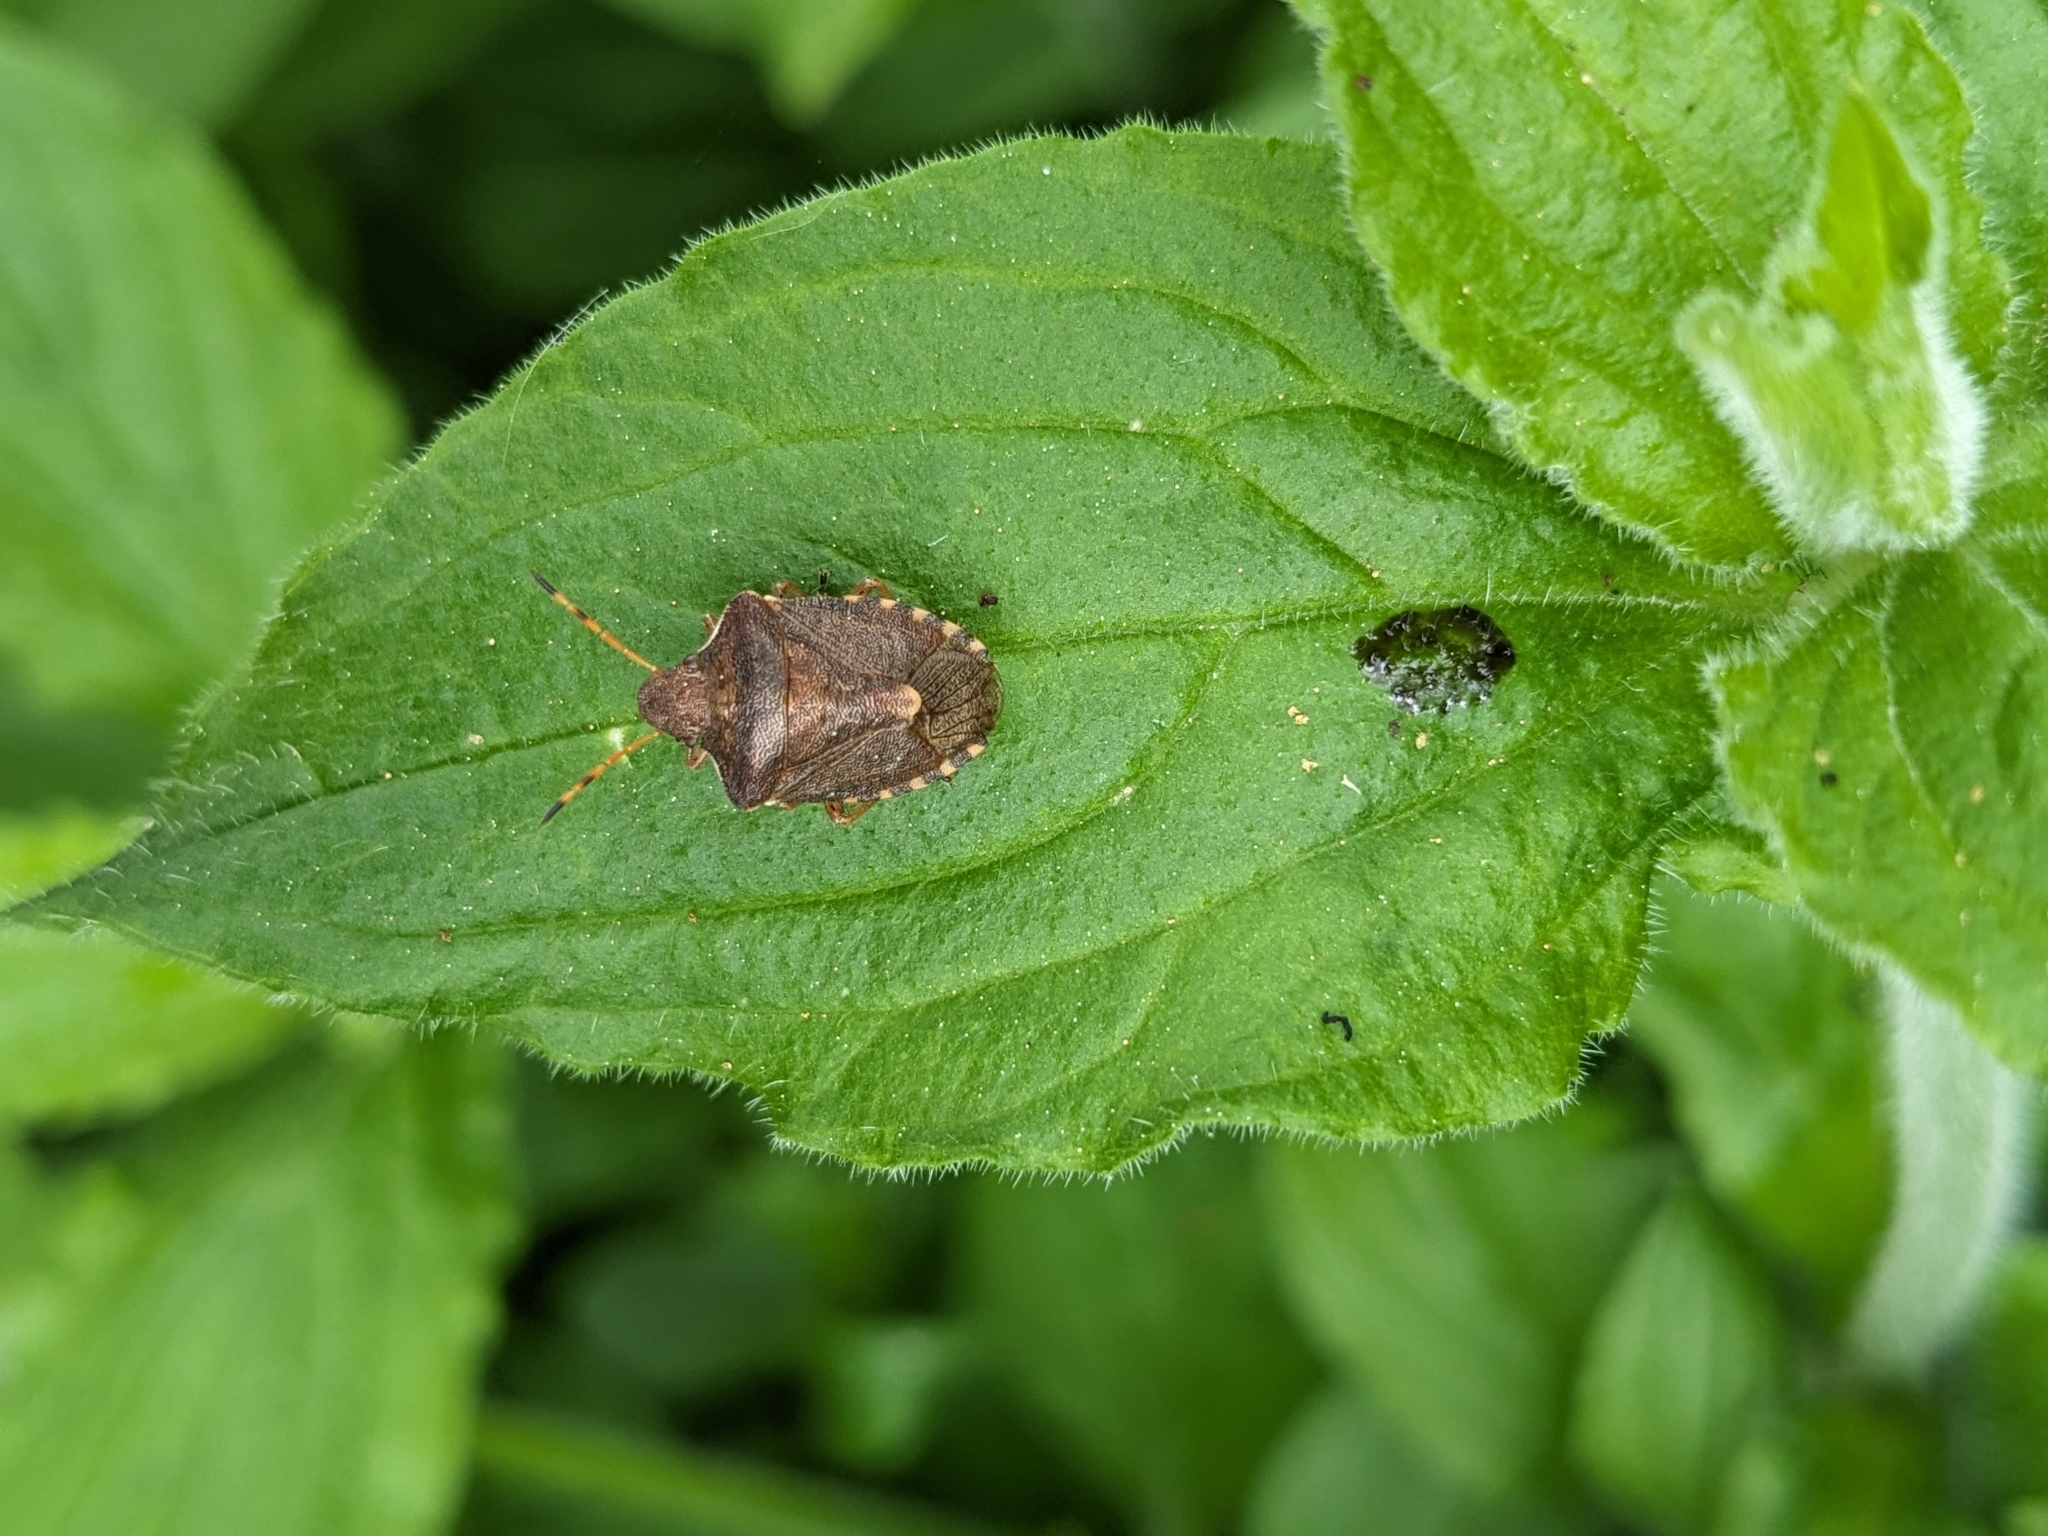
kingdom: Animalia
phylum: Arthropoda
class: Insecta
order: Hemiptera
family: Pentatomidae
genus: Holcostethus
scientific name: Holcostethus strictus
